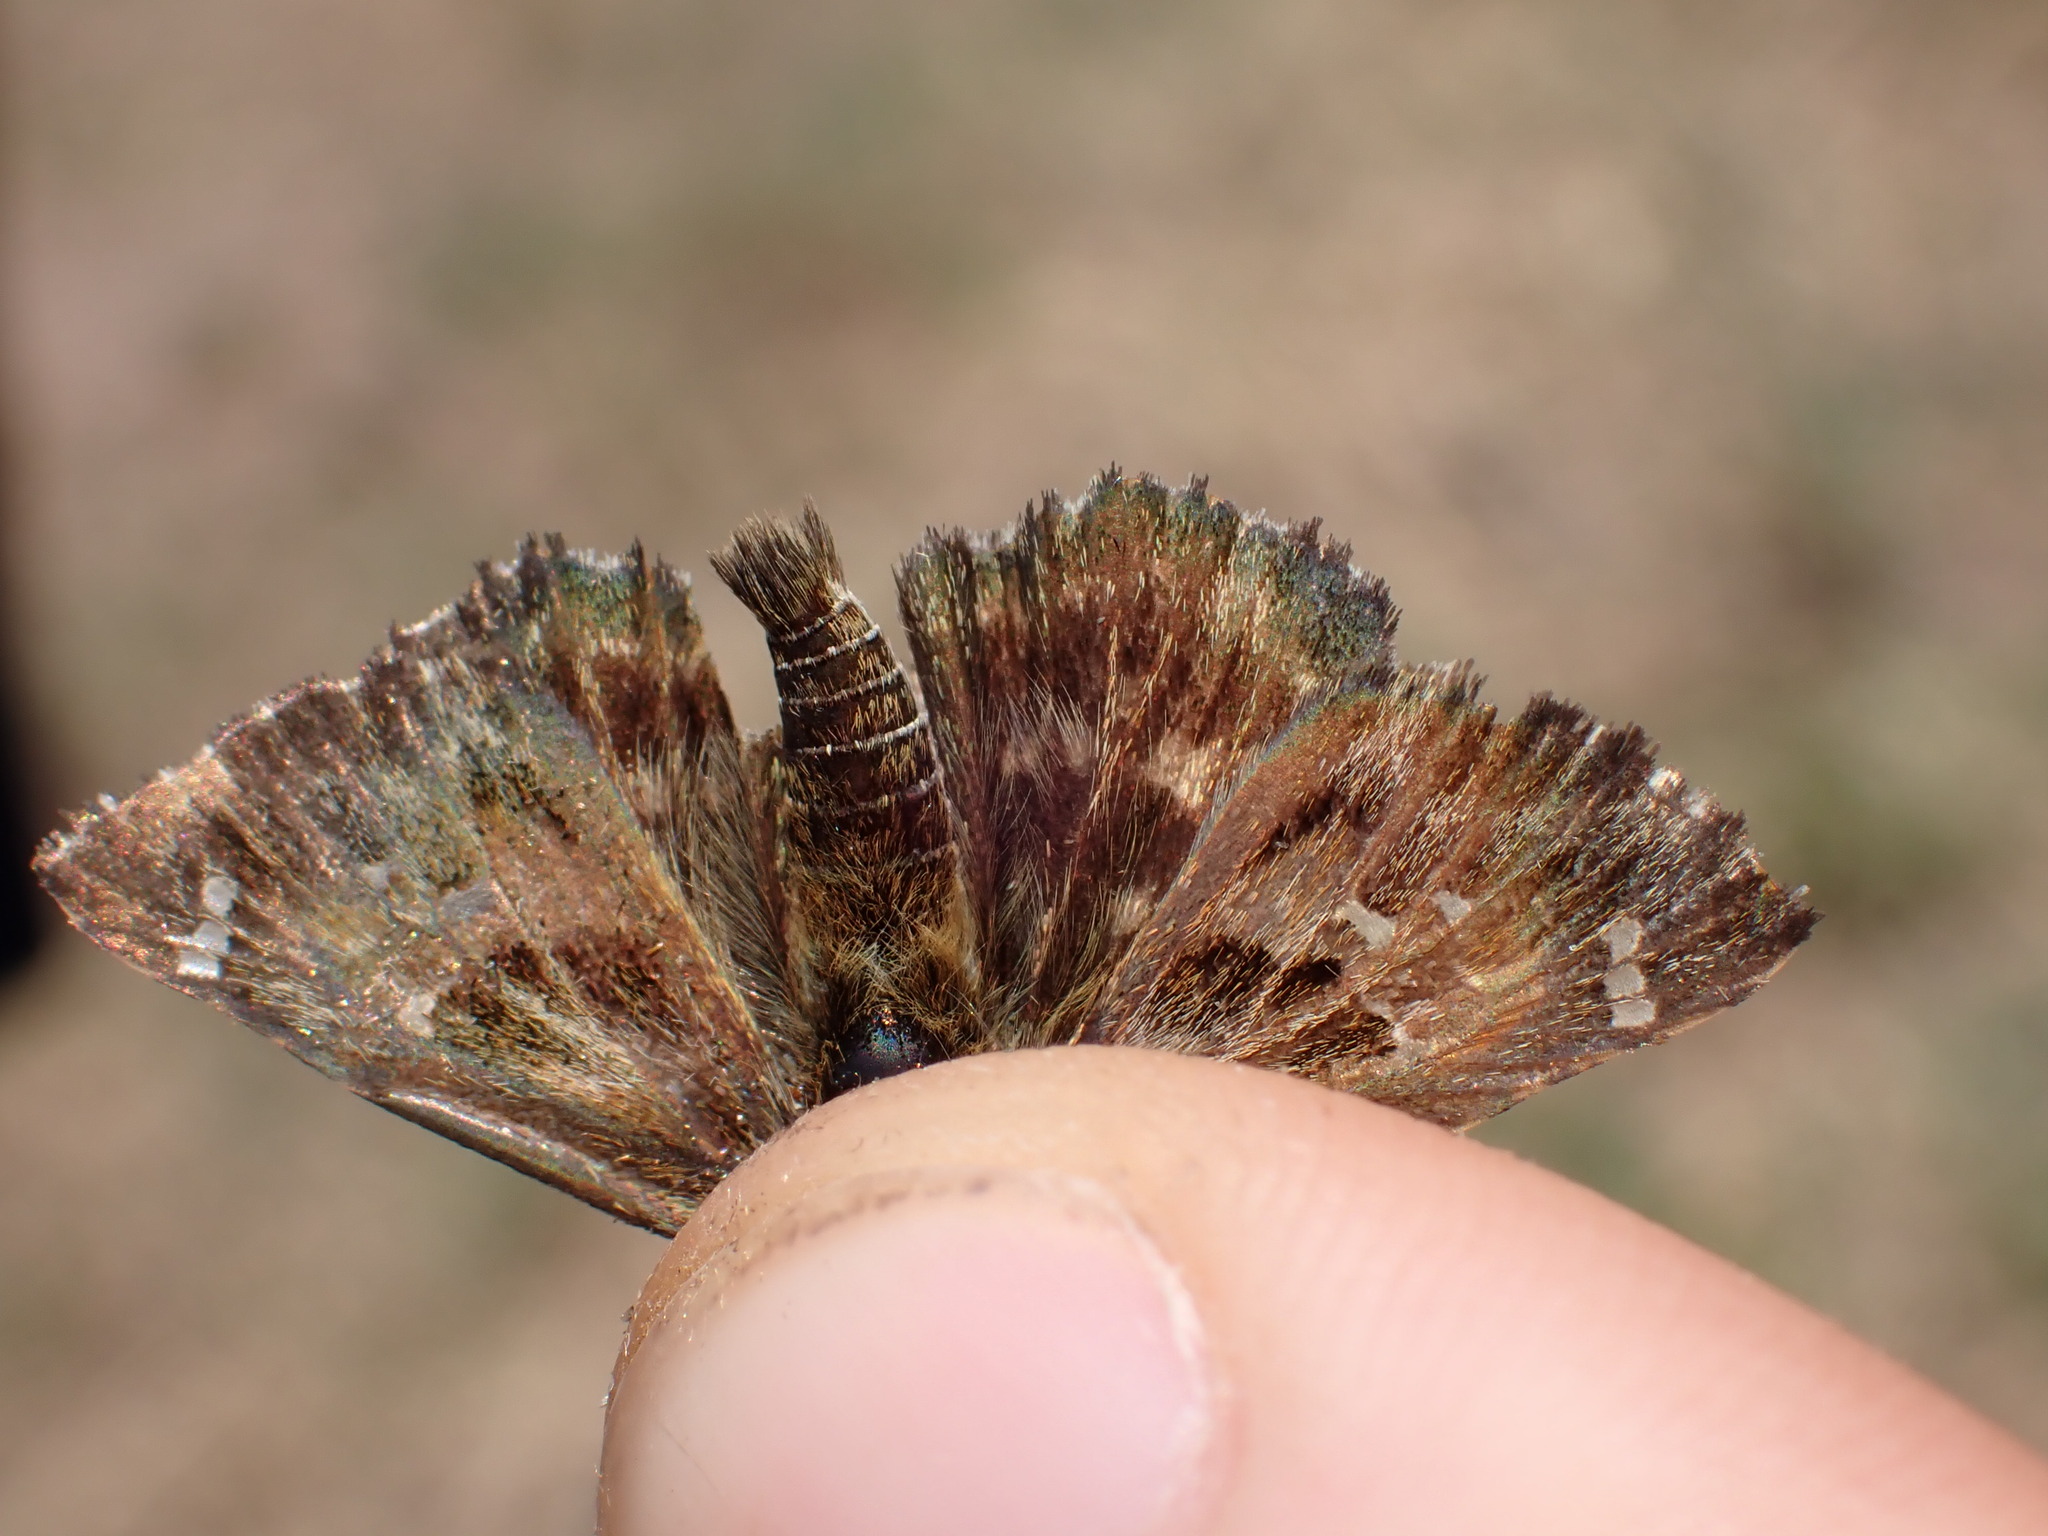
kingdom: Animalia
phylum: Arthropoda
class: Insecta
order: Lepidoptera
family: Hesperiidae
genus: Carcharodus
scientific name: Carcharodus alceae
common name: Mallow skipper
